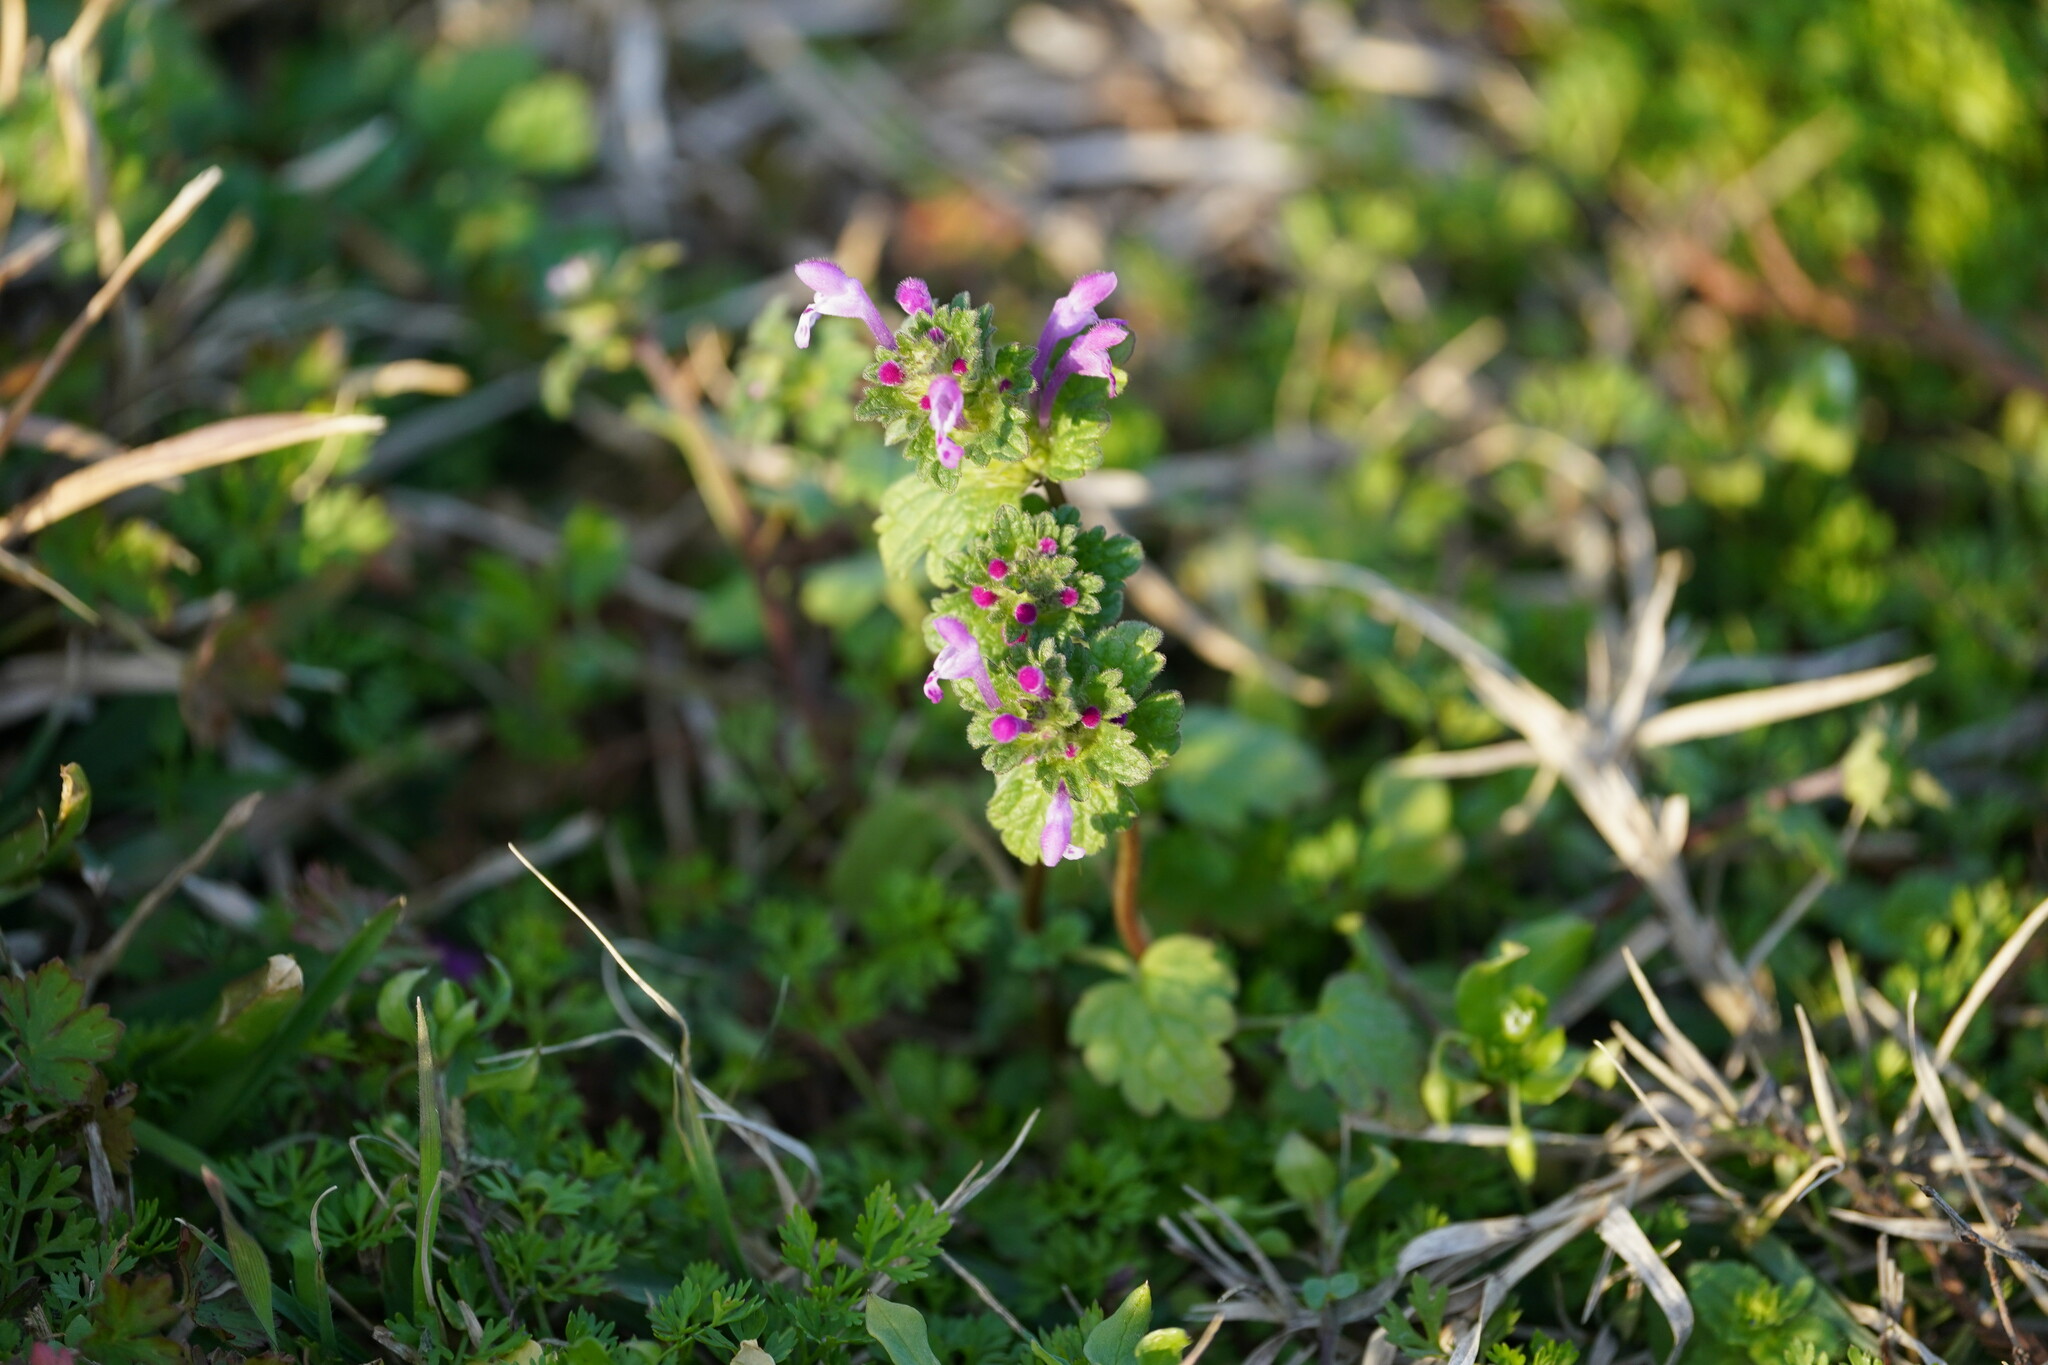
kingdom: Plantae
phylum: Tracheophyta
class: Magnoliopsida
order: Lamiales
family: Lamiaceae
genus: Lamium
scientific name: Lamium amplexicaule
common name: Henbit dead-nettle
